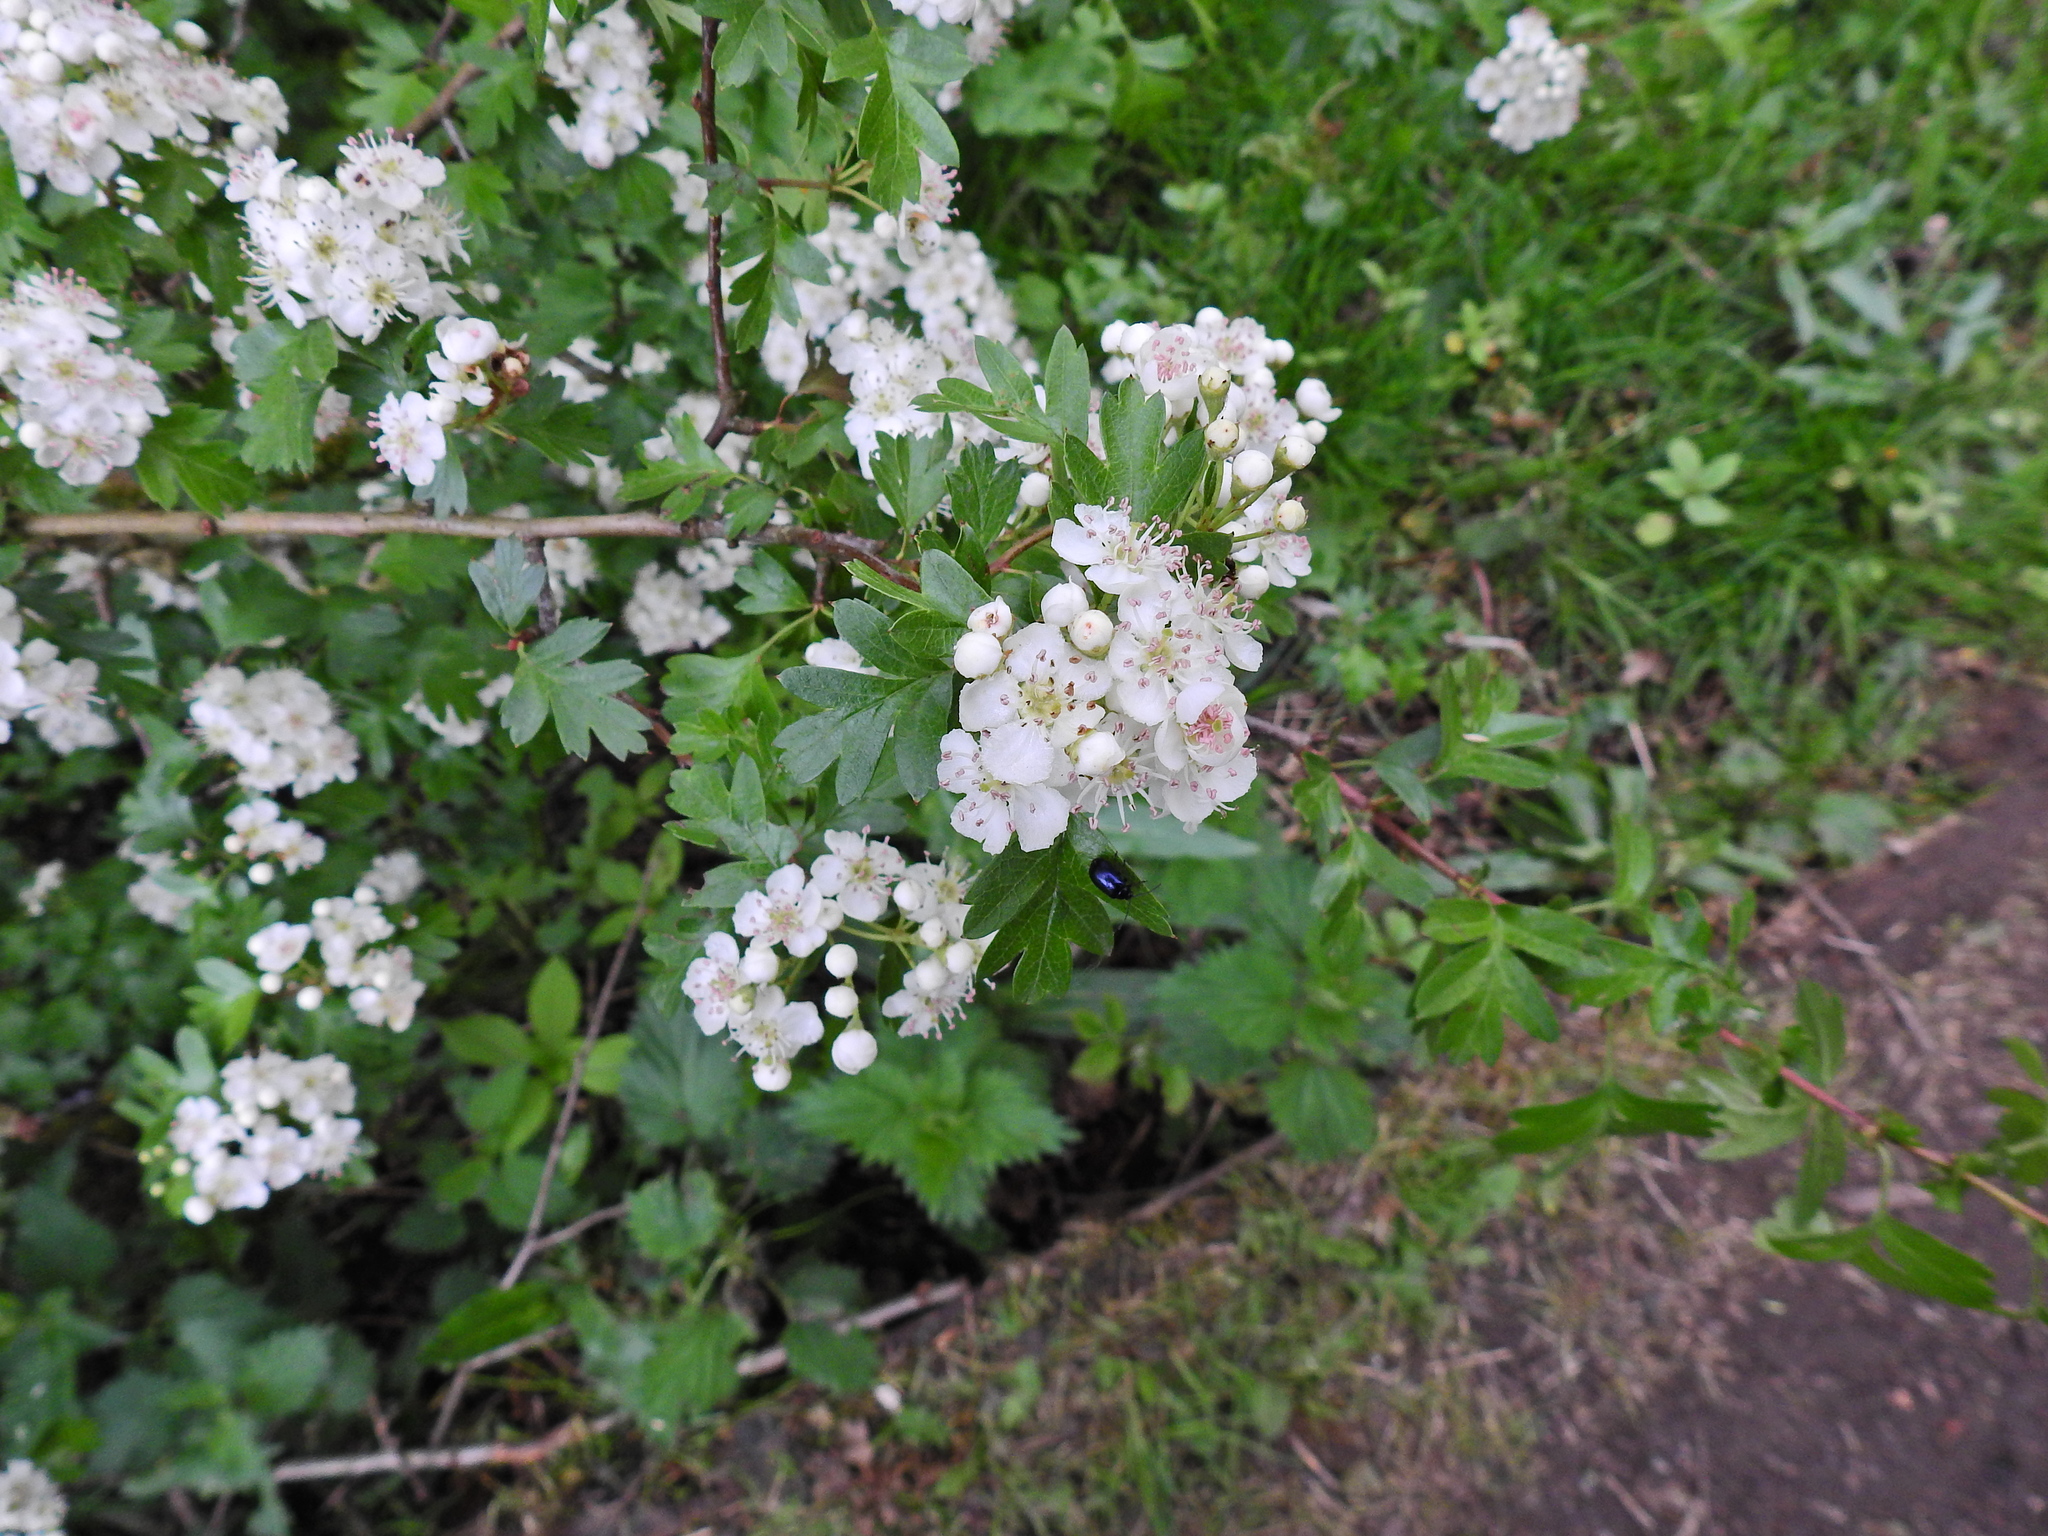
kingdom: Plantae
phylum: Tracheophyta
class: Magnoliopsida
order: Rosales
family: Rosaceae
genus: Crataegus
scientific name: Crataegus monogyna
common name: Hawthorn
